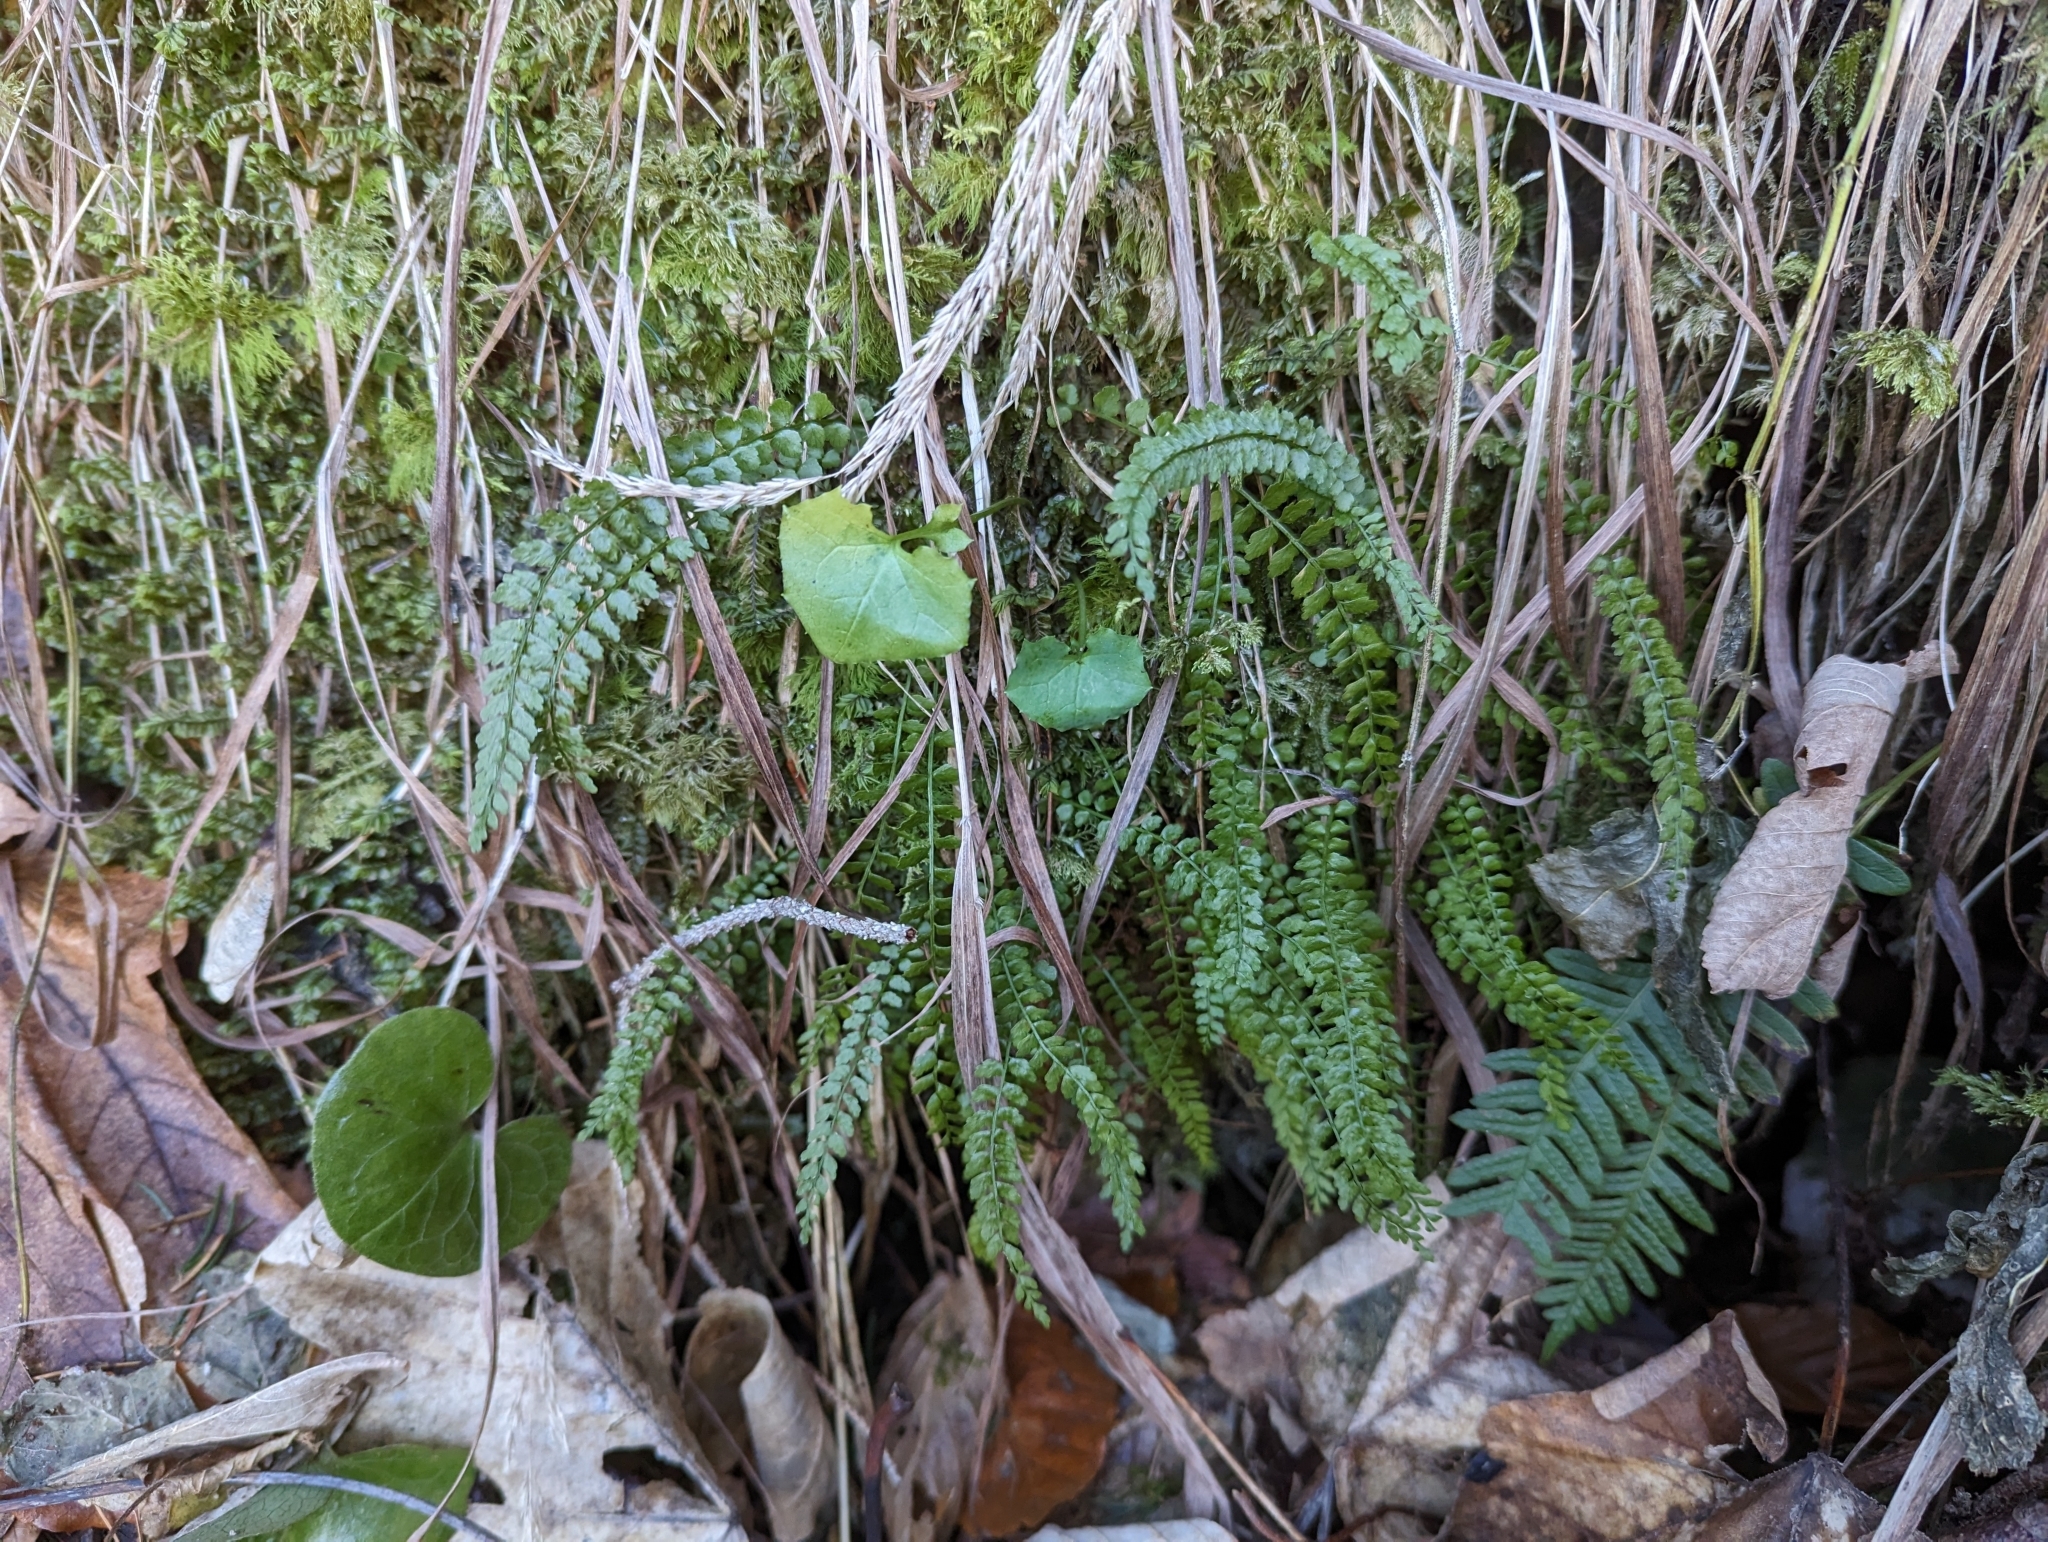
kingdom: Plantae
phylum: Tracheophyta
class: Polypodiopsida
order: Polypodiales
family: Aspleniaceae
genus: Asplenium
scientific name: Asplenium viride
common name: Green spleenwort
